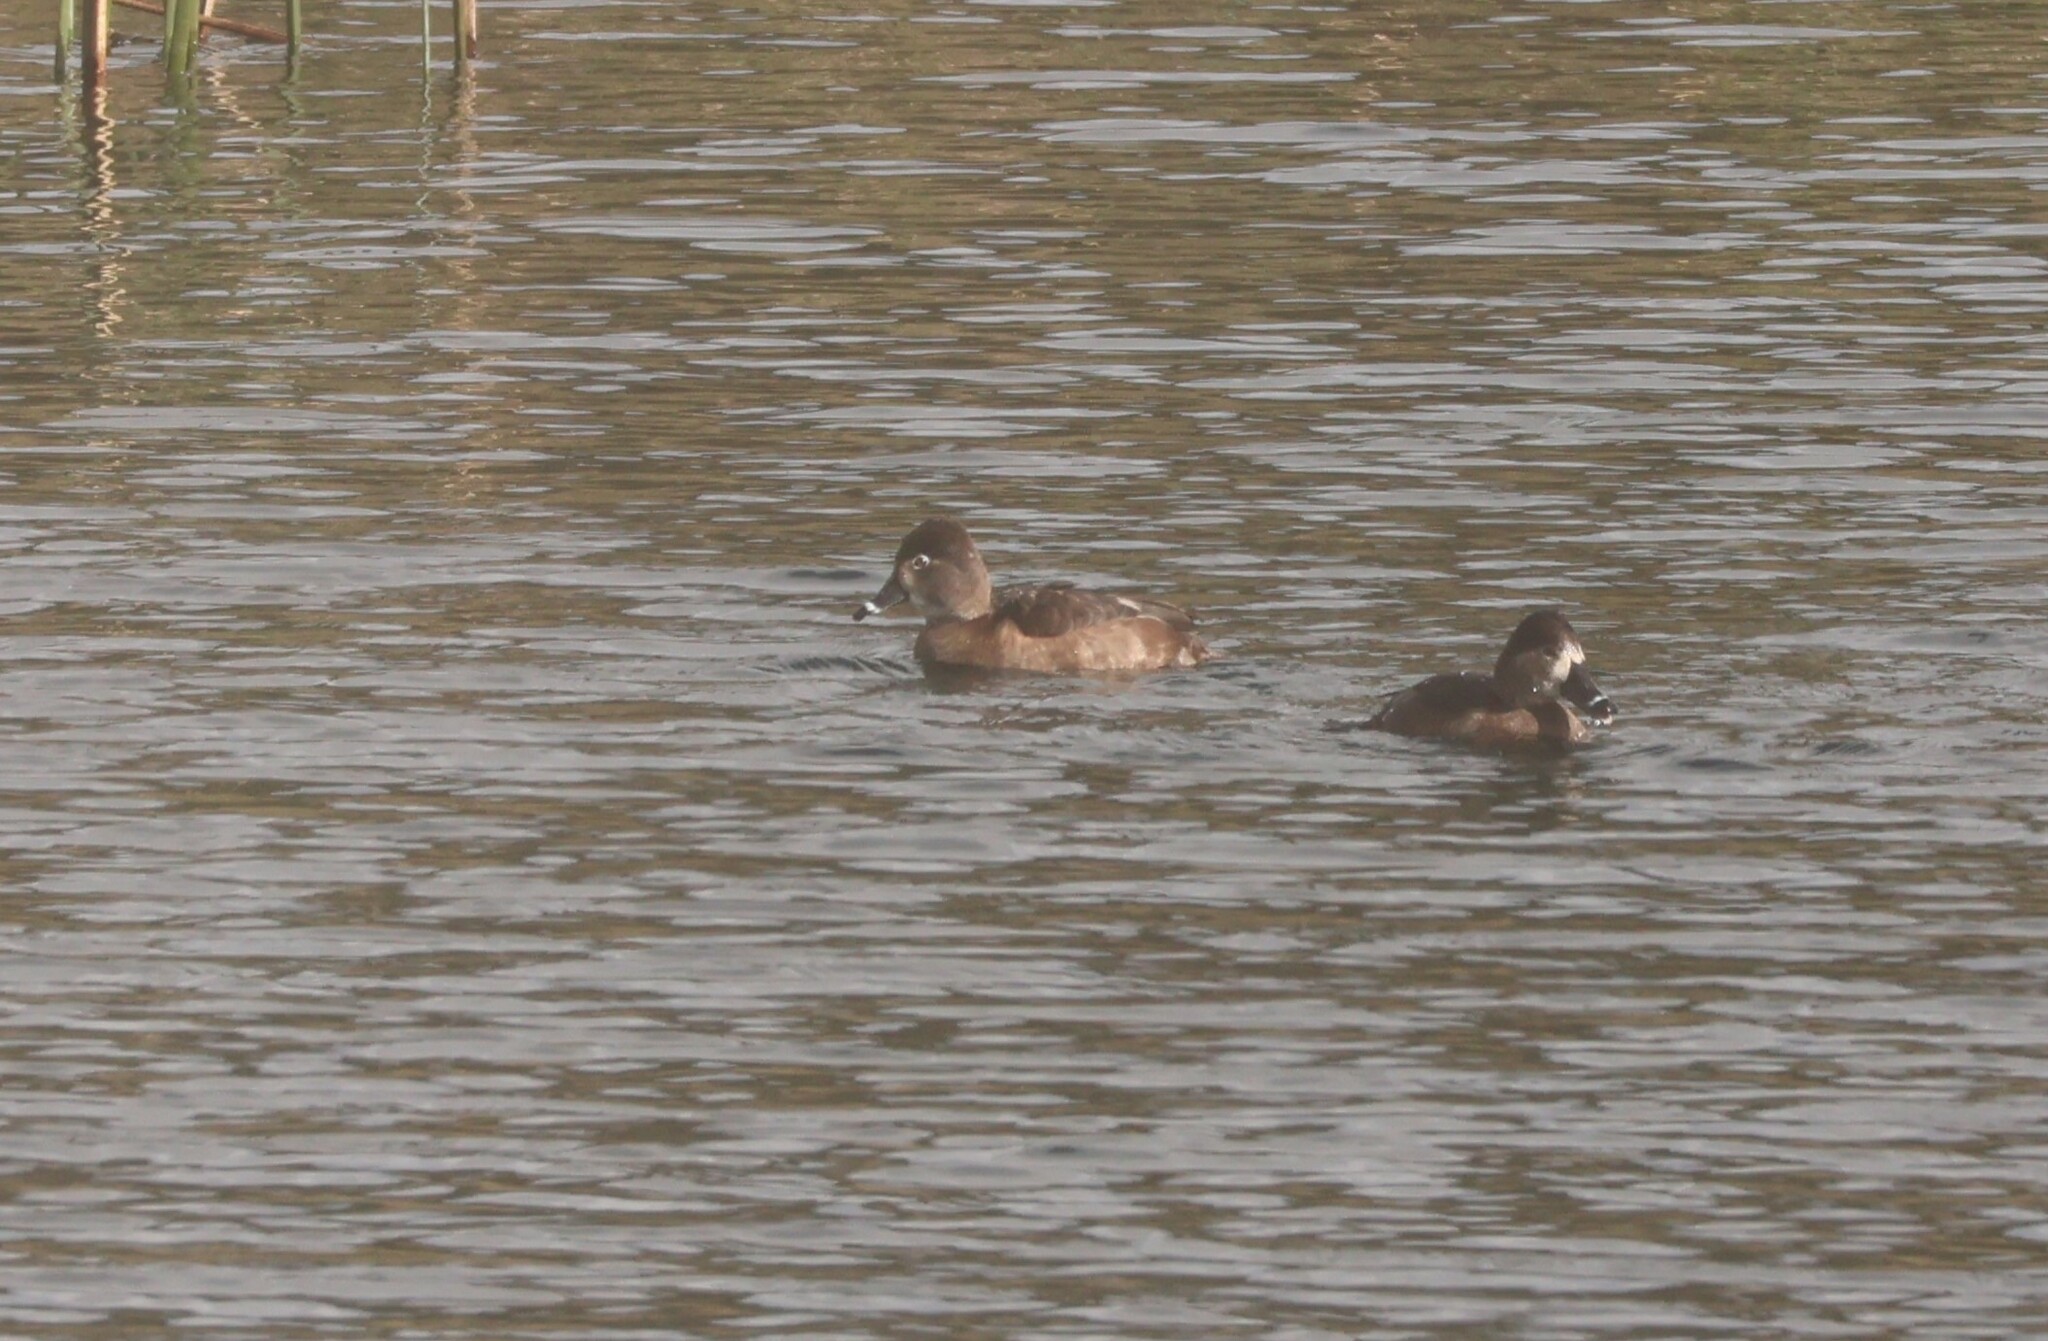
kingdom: Animalia
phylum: Chordata
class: Aves
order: Anseriformes
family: Anatidae
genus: Aythya
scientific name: Aythya collaris
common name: Ring-necked duck
